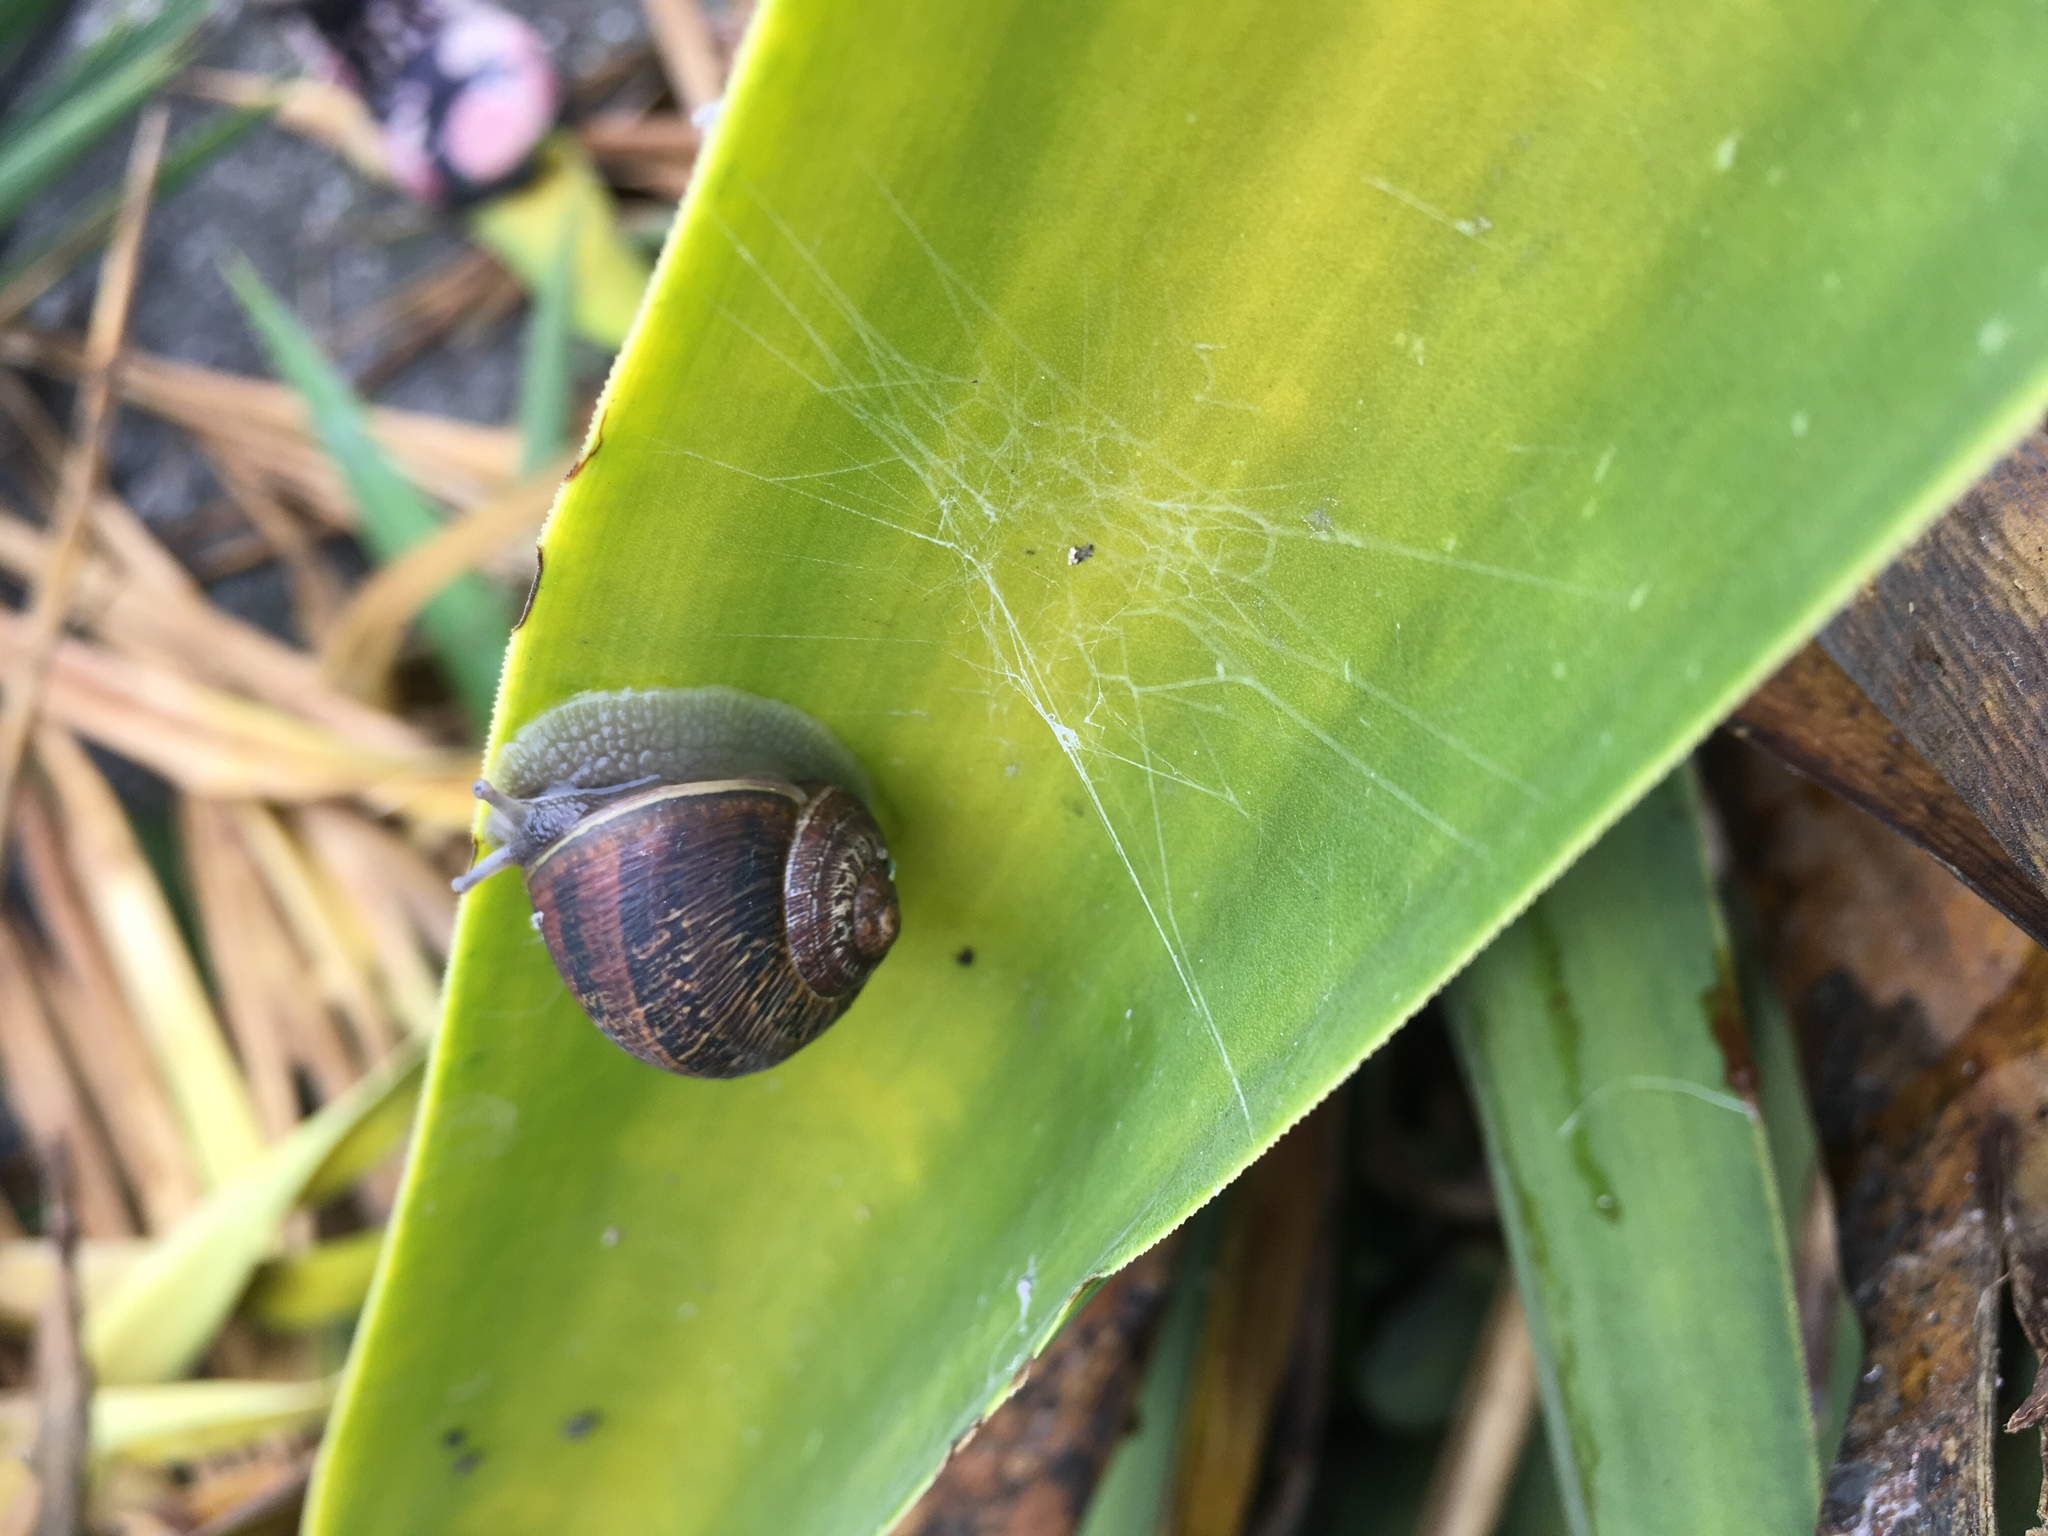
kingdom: Animalia
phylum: Mollusca
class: Gastropoda
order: Stylommatophora
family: Helicidae
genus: Cornu
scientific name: Cornu aspersum
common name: Brown garden snail
